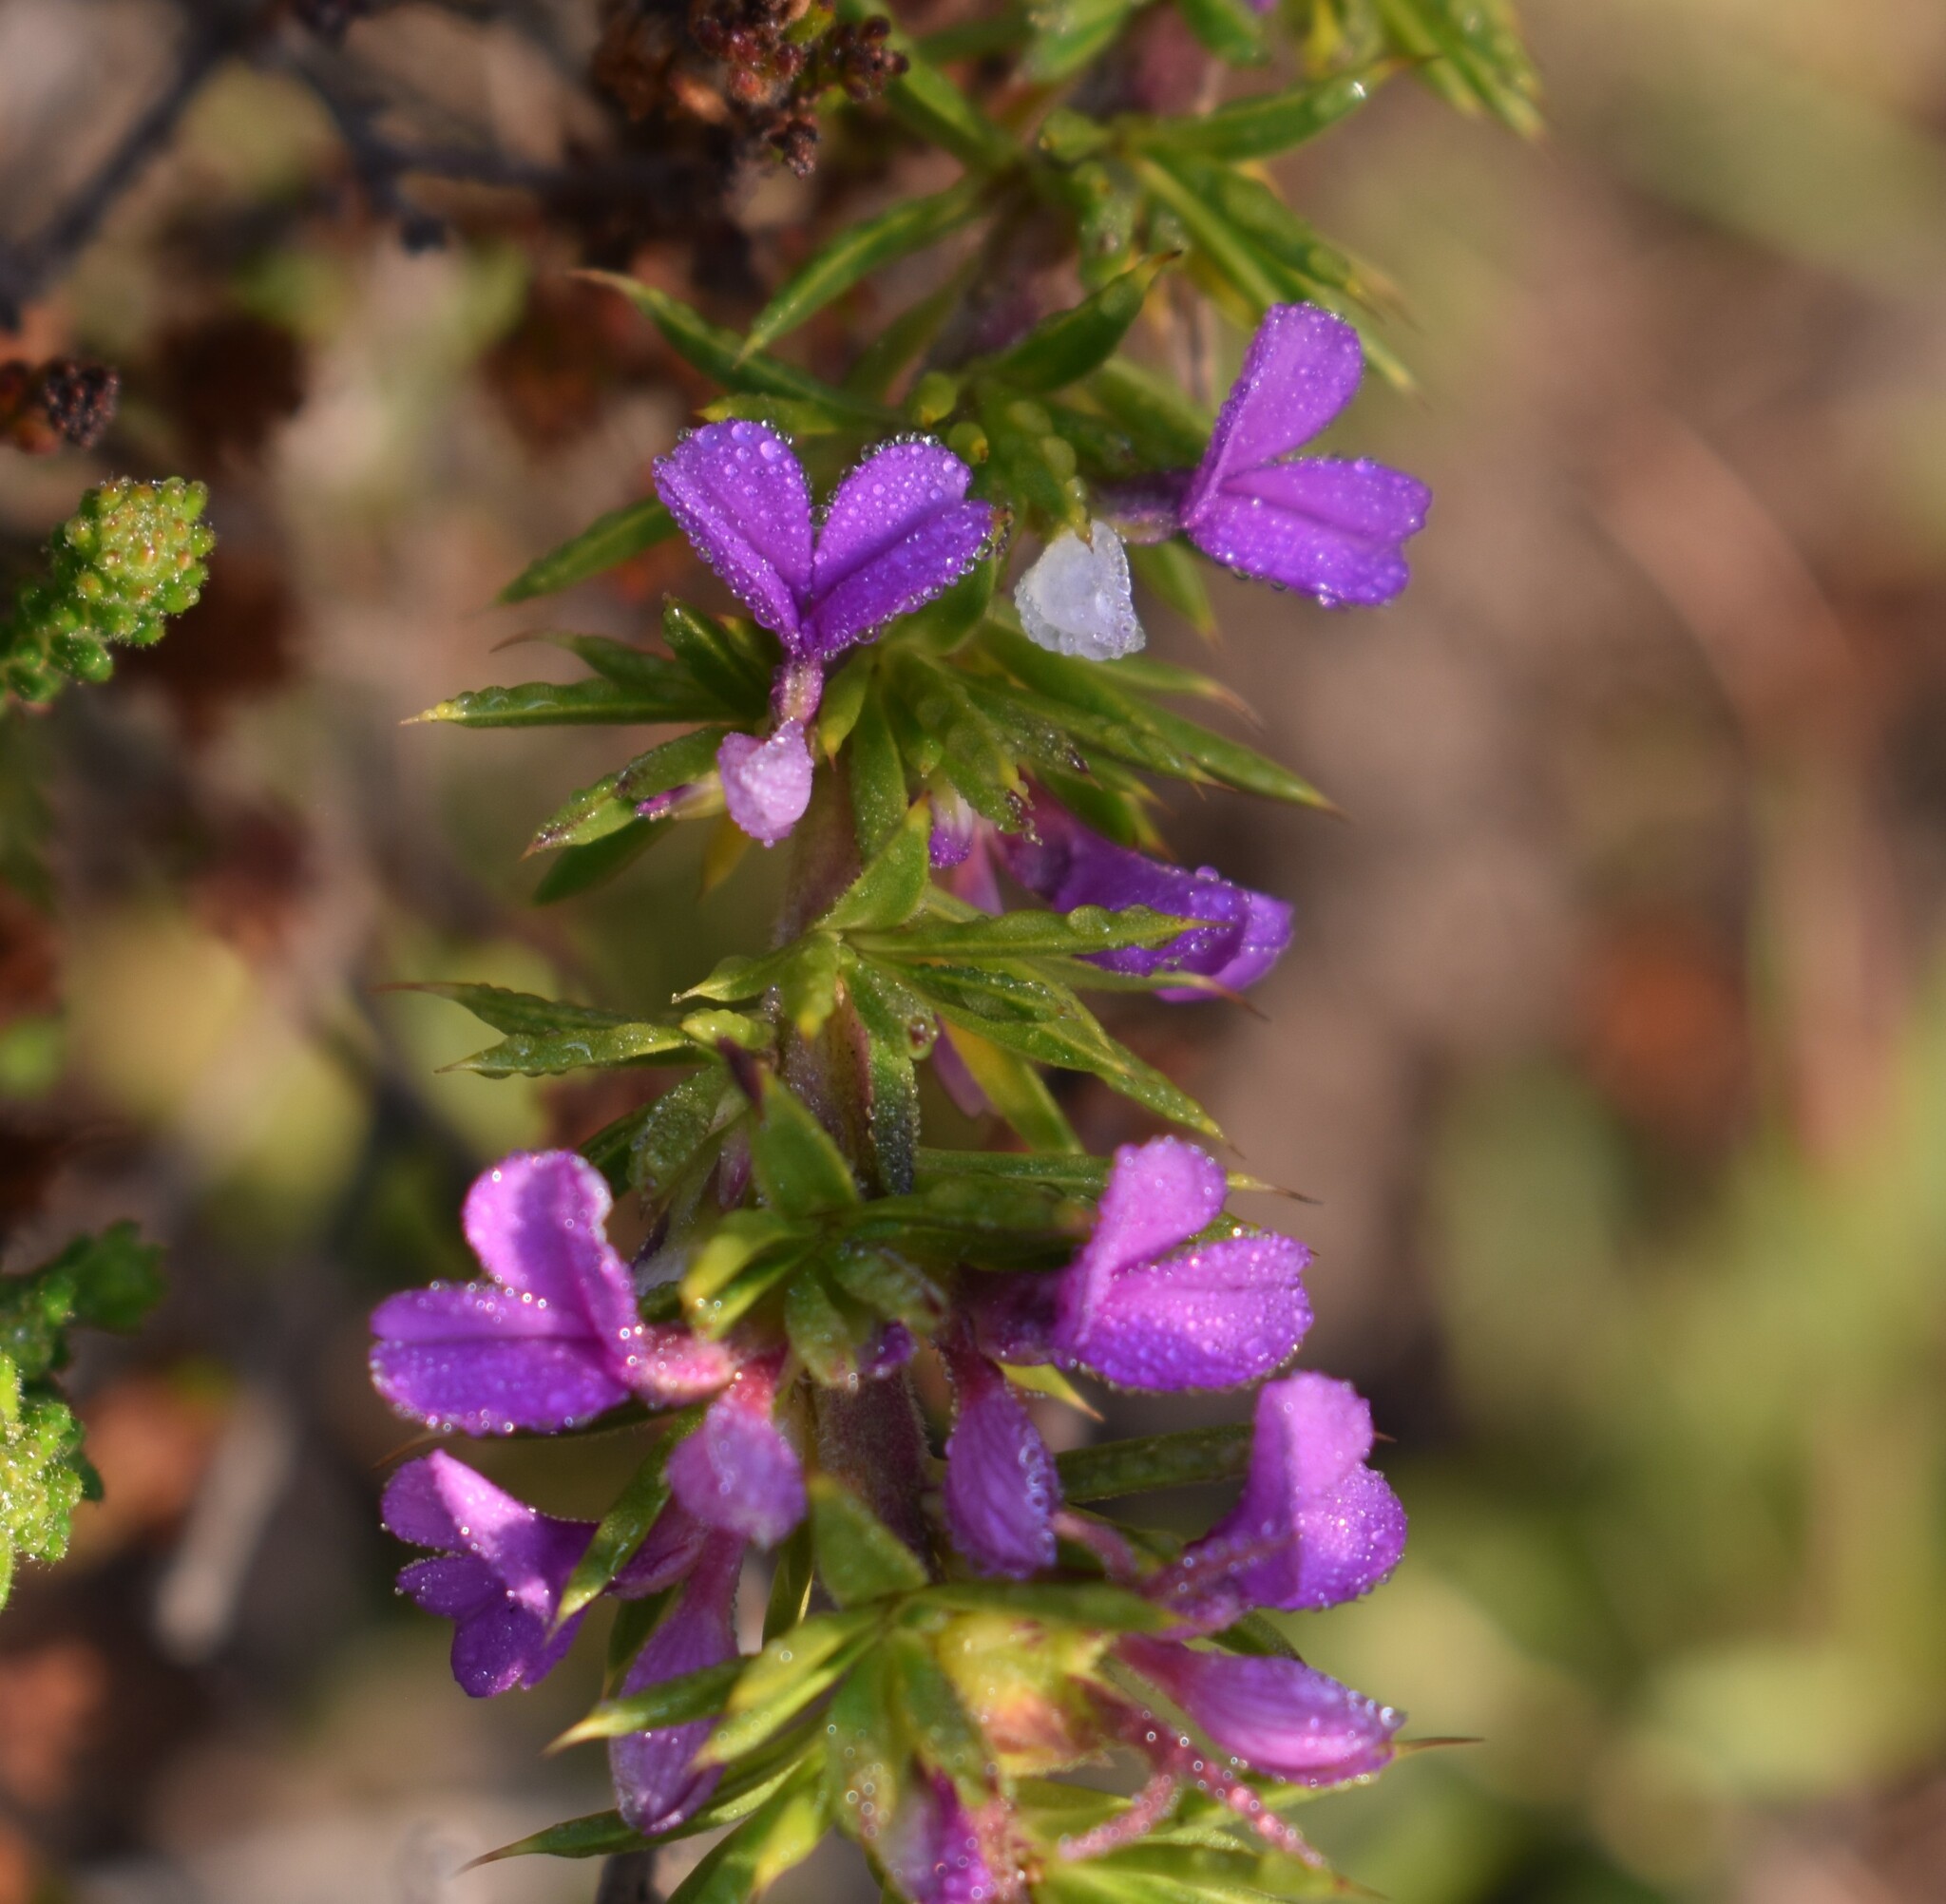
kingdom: Plantae
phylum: Tracheophyta
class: Magnoliopsida
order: Fabales
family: Polygalaceae
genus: Muraltia
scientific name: Muraltia heisteria
